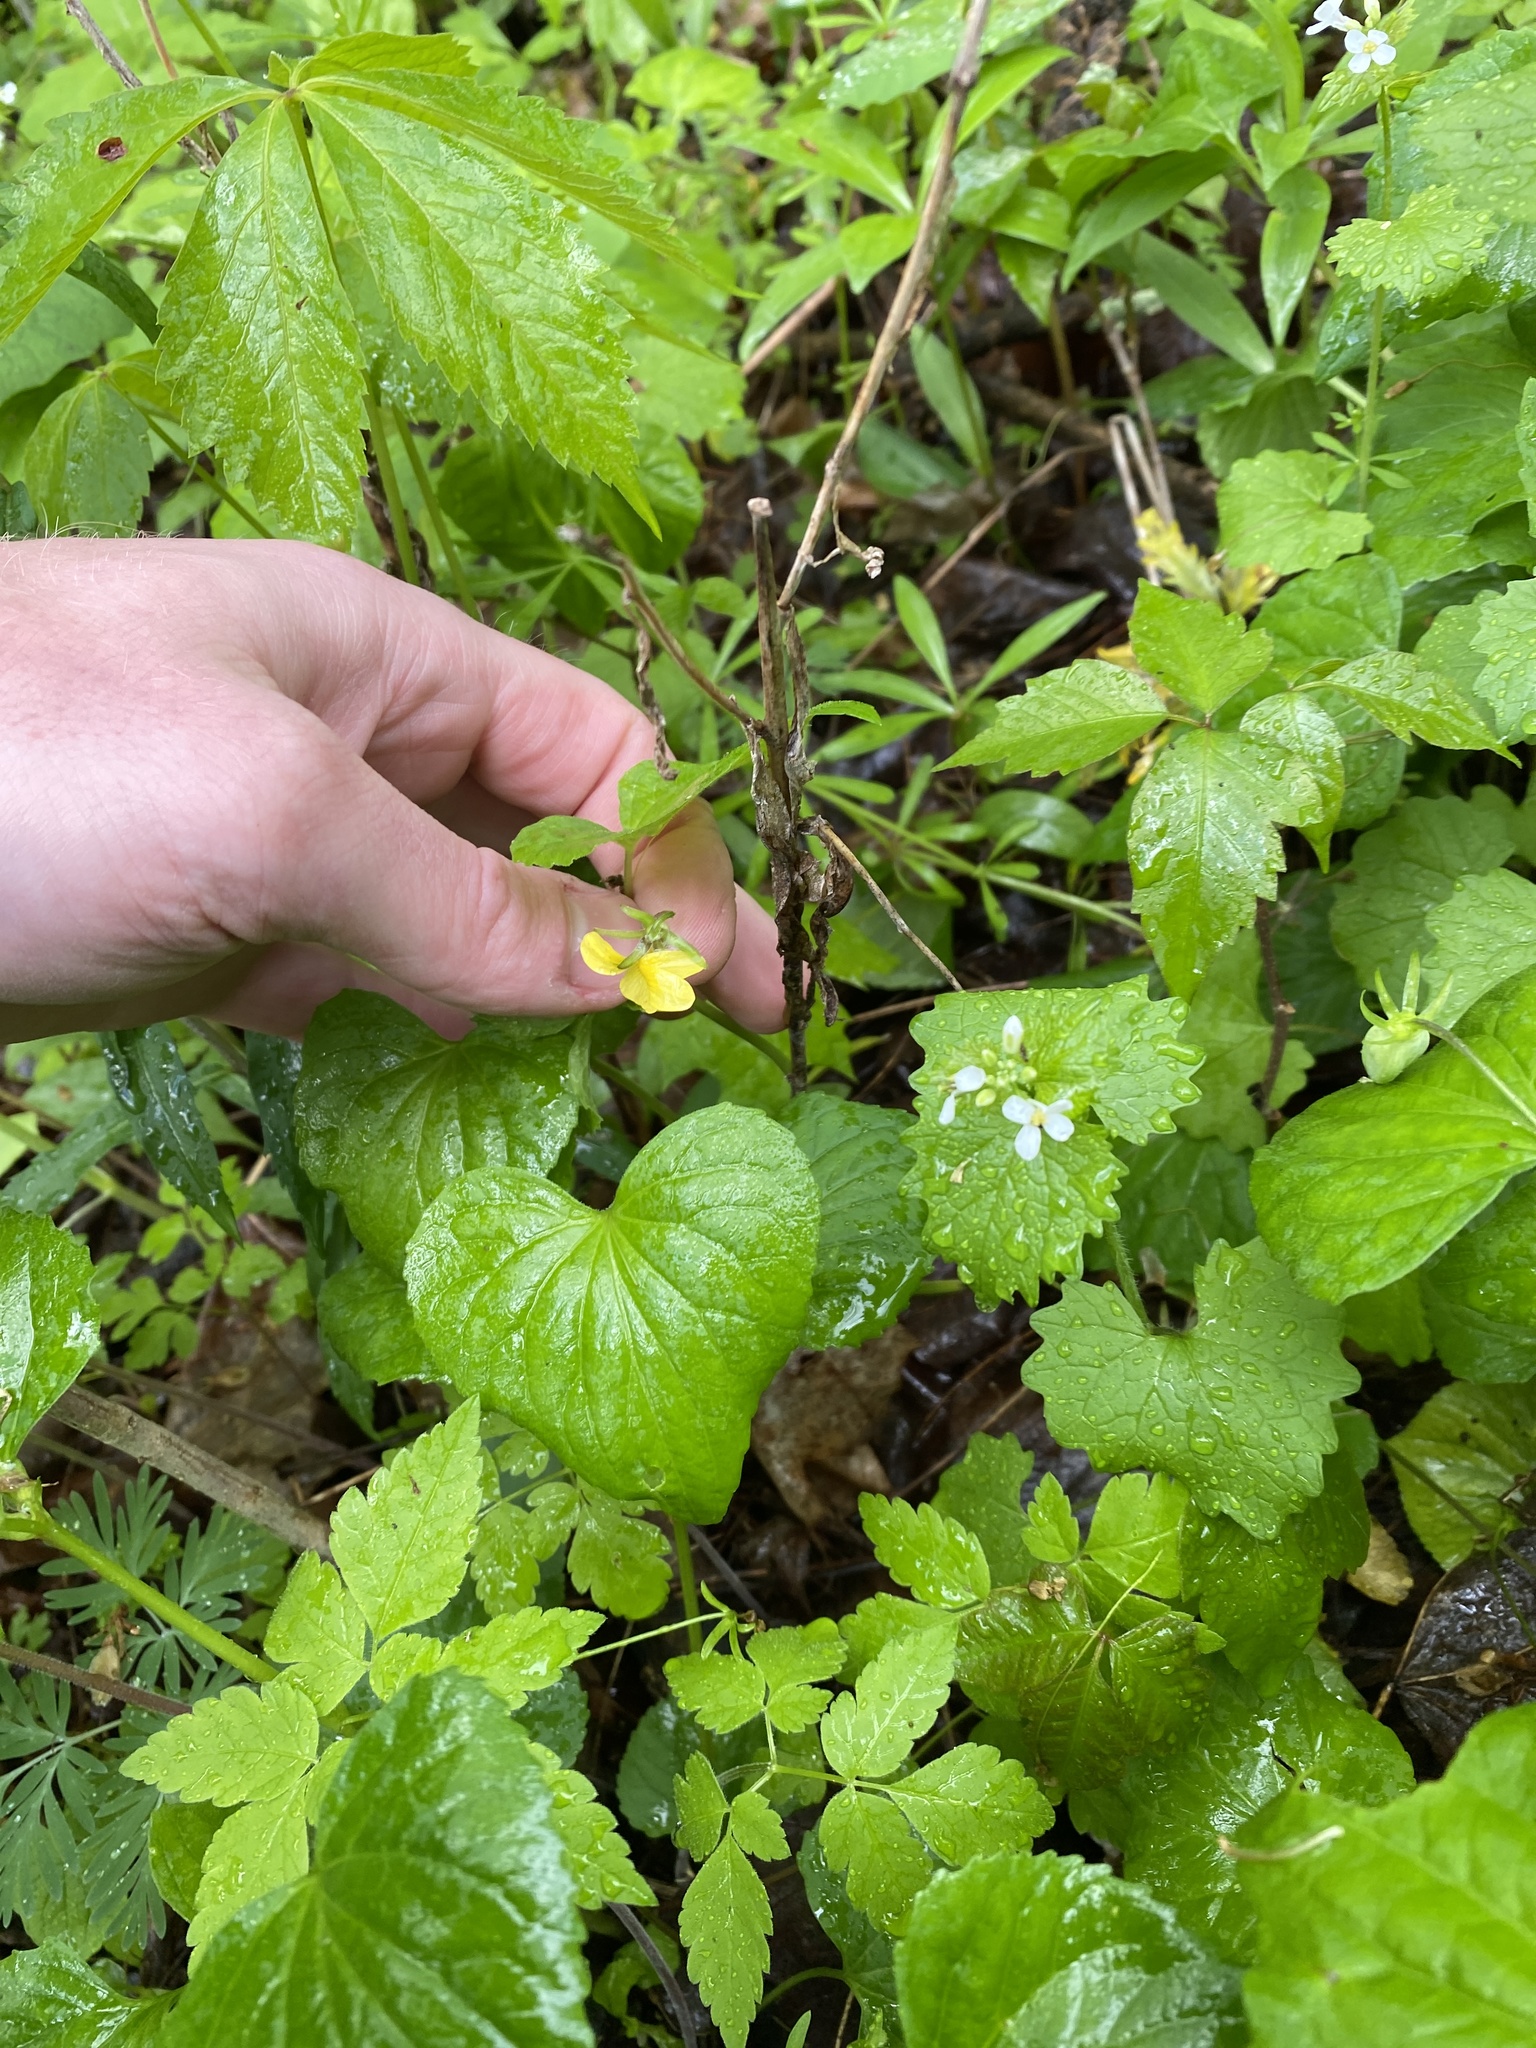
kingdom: Plantae
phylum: Tracheophyta
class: Magnoliopsida
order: Malpighiales
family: Violaceae
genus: Viola
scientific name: Viola eriocarpa
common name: Smooth yellow violet
